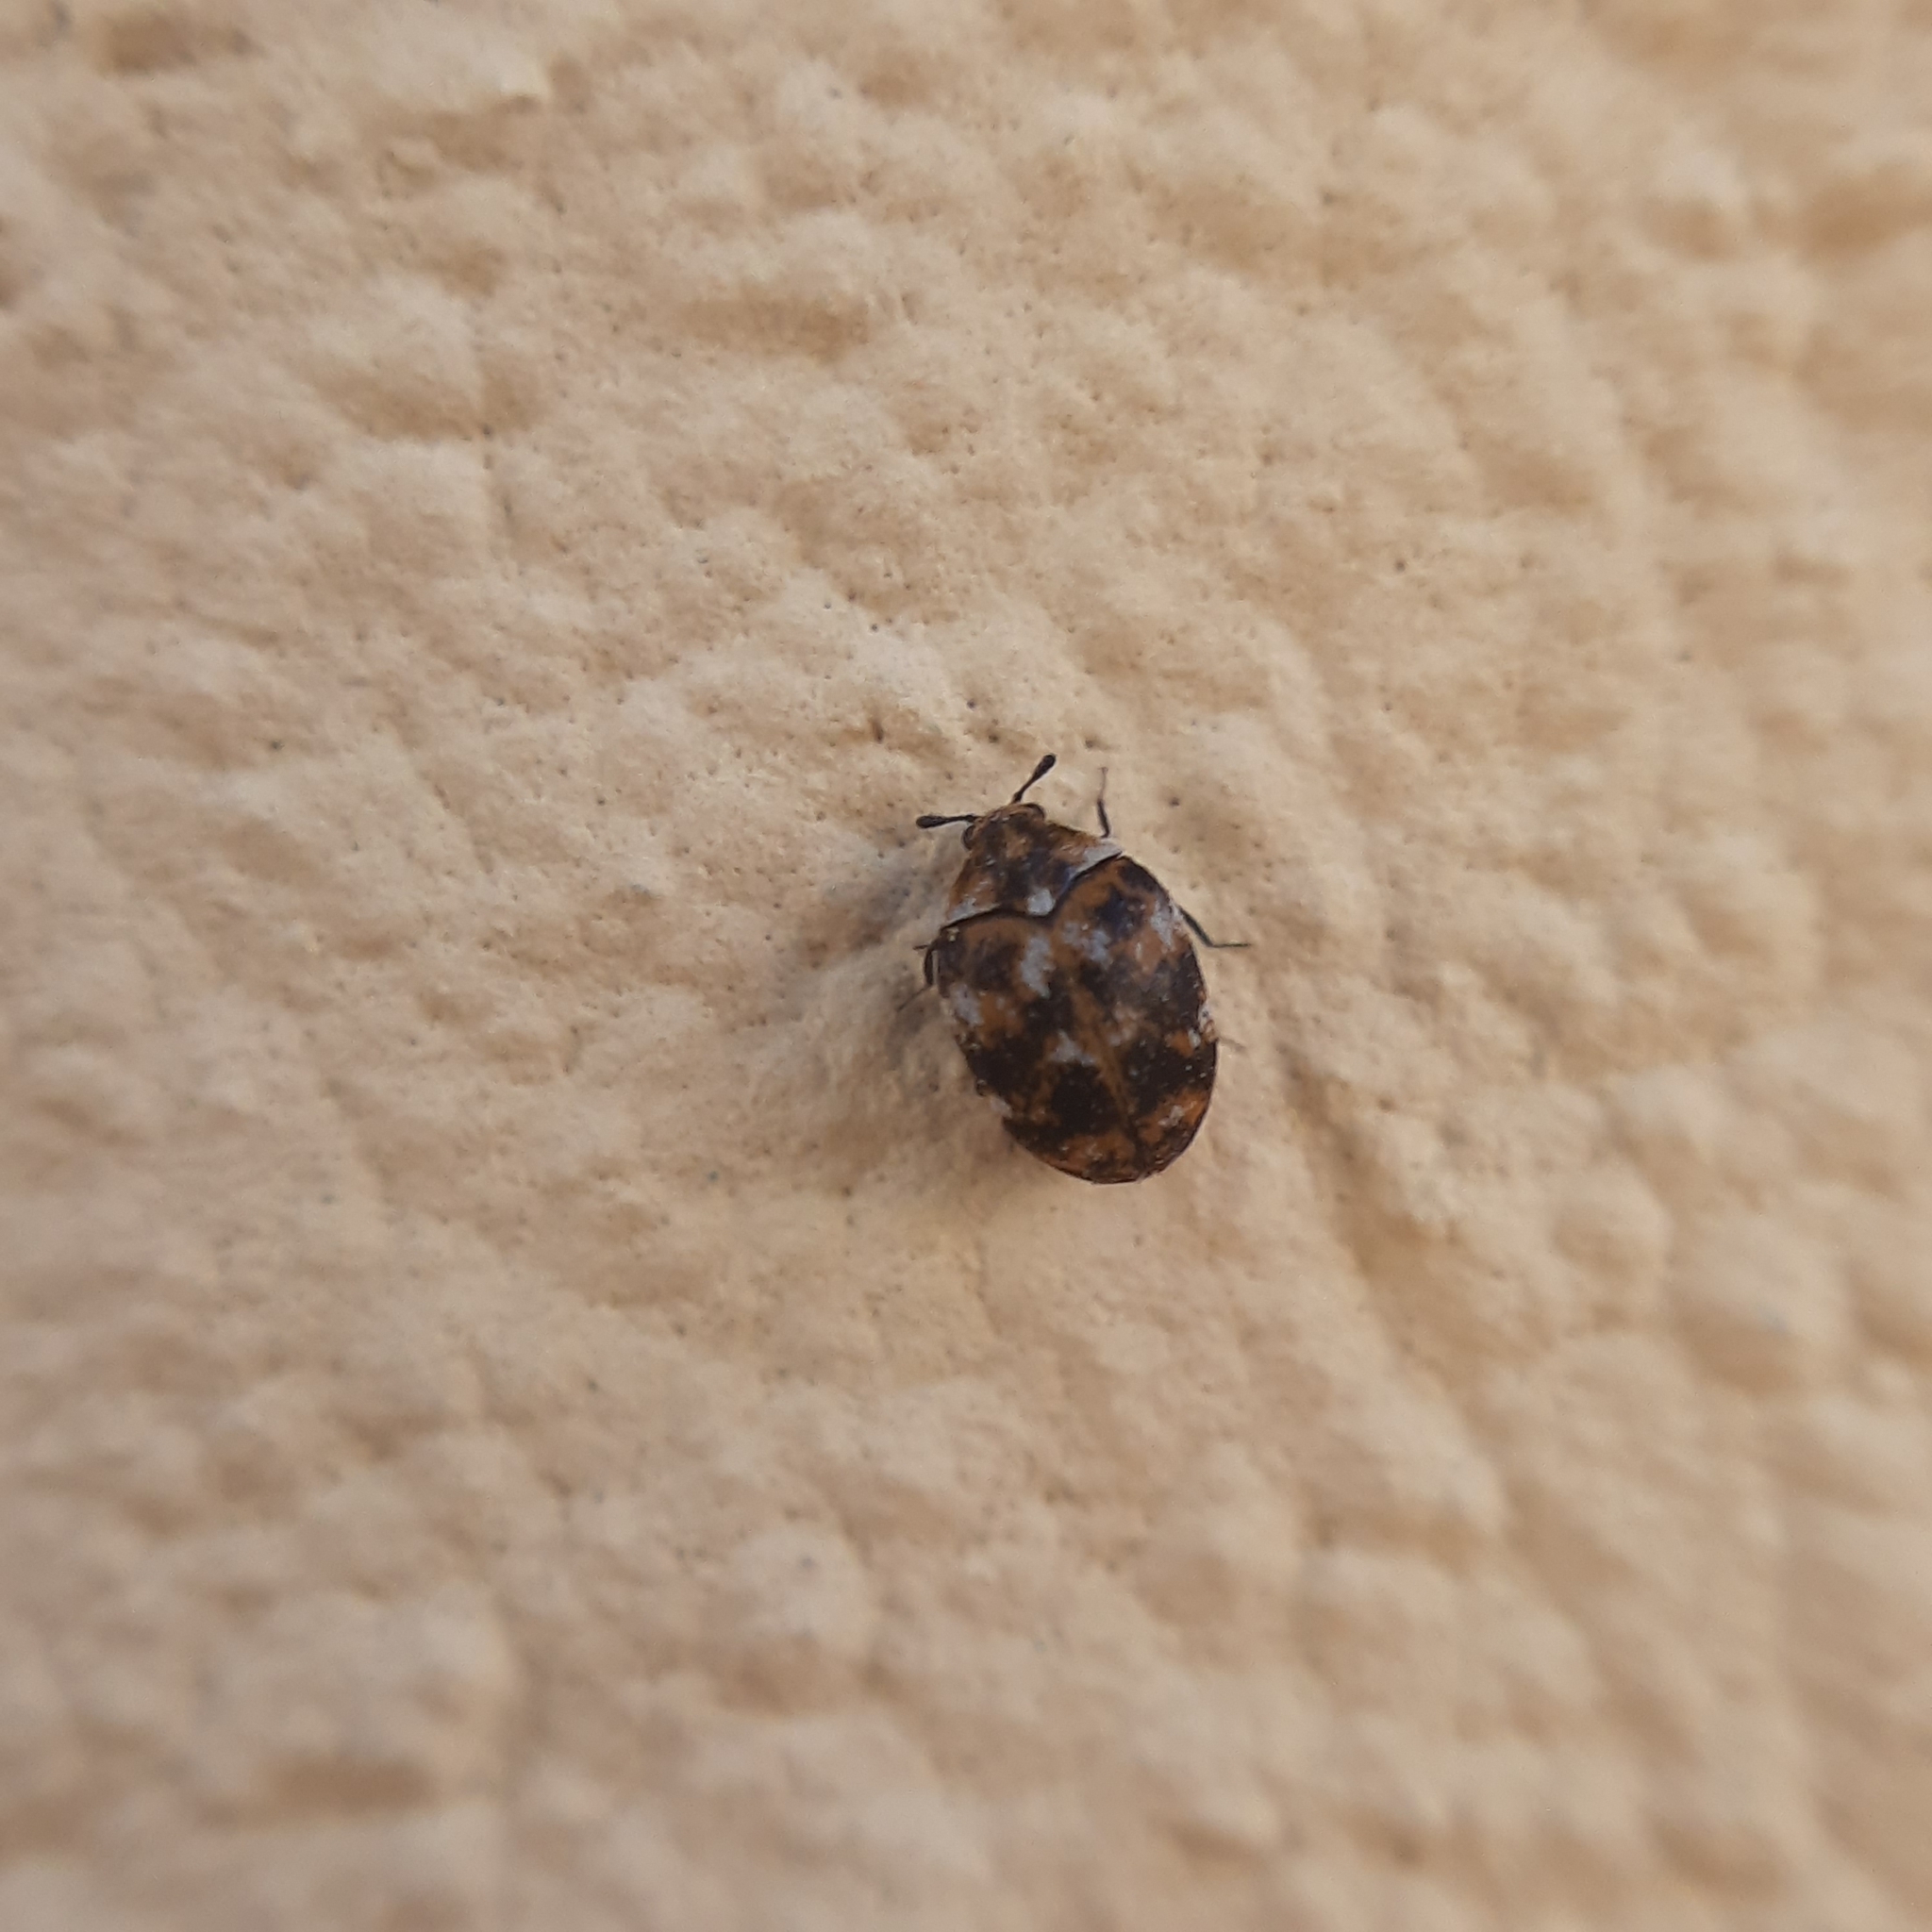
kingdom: Animalia
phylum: Arthropoda
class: Insecta
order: Coleoptera
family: Dermestidae
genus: Anthrenus
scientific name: Anthrenus verbasci
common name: Varied carpet beetle
